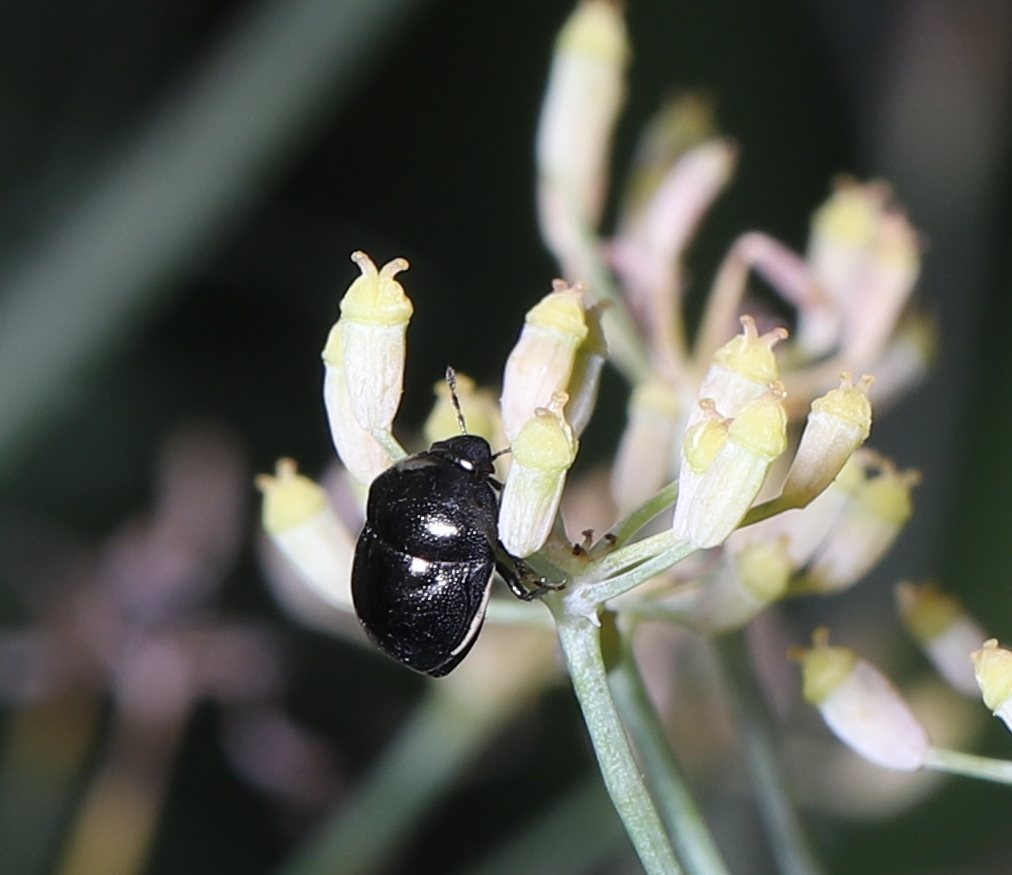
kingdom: Animalia
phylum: Arthropoda
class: Insecta
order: Hemiptera
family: Cydnidae
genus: Sehirus
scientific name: Sehirus cinctus
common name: White-margined burrower bug
